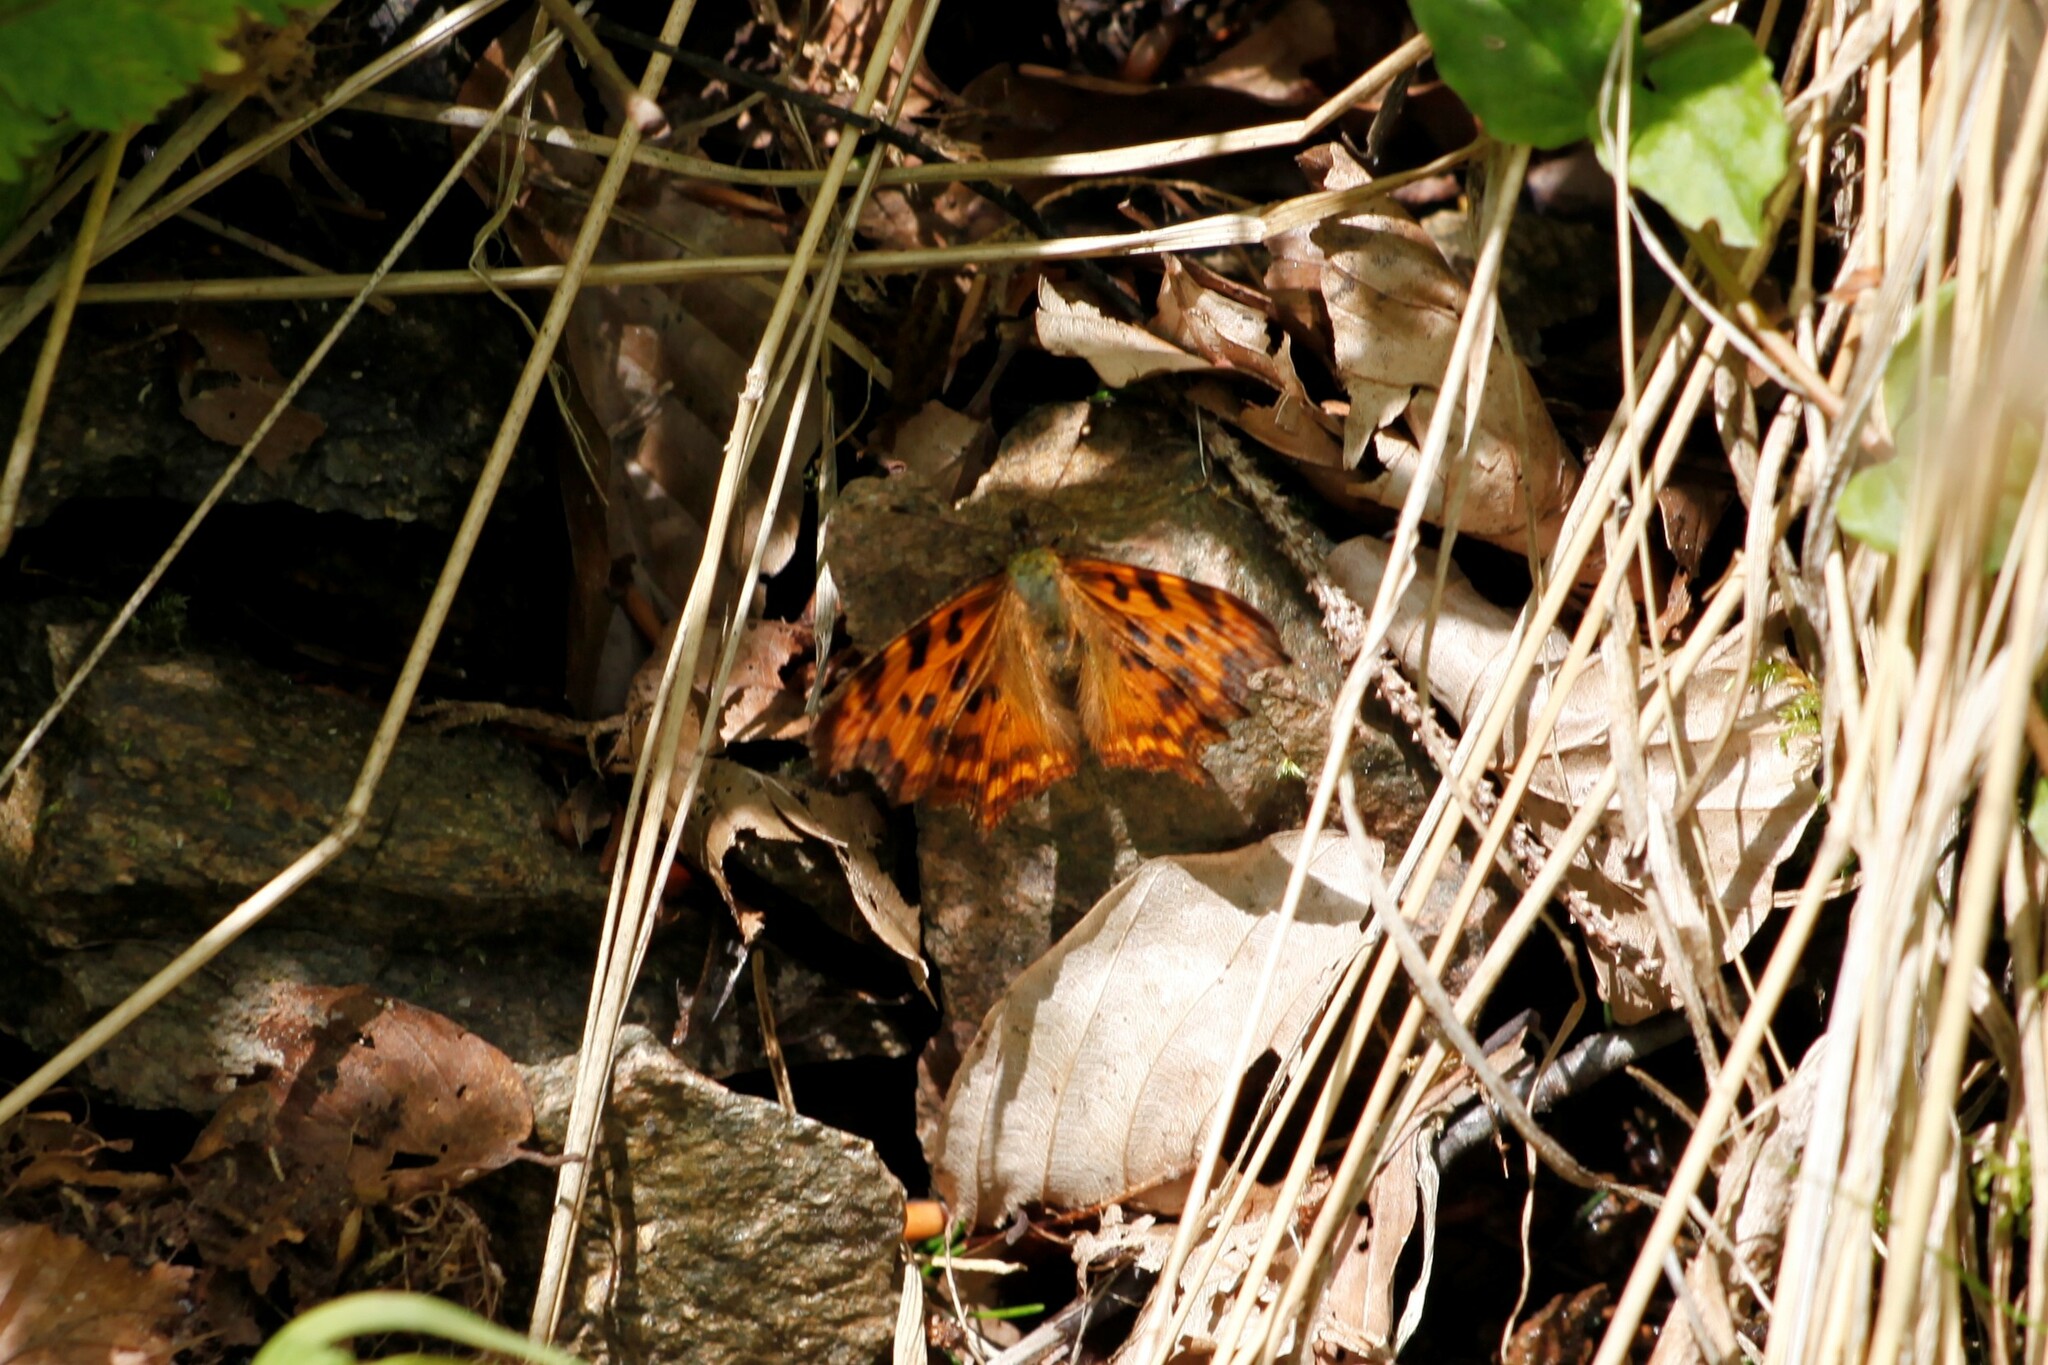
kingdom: Animalia
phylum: Arthropoda
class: Insecta
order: Lepidoptera
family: Nymphalidae
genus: Polygonia
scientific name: Polygonia c-album
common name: Comma
